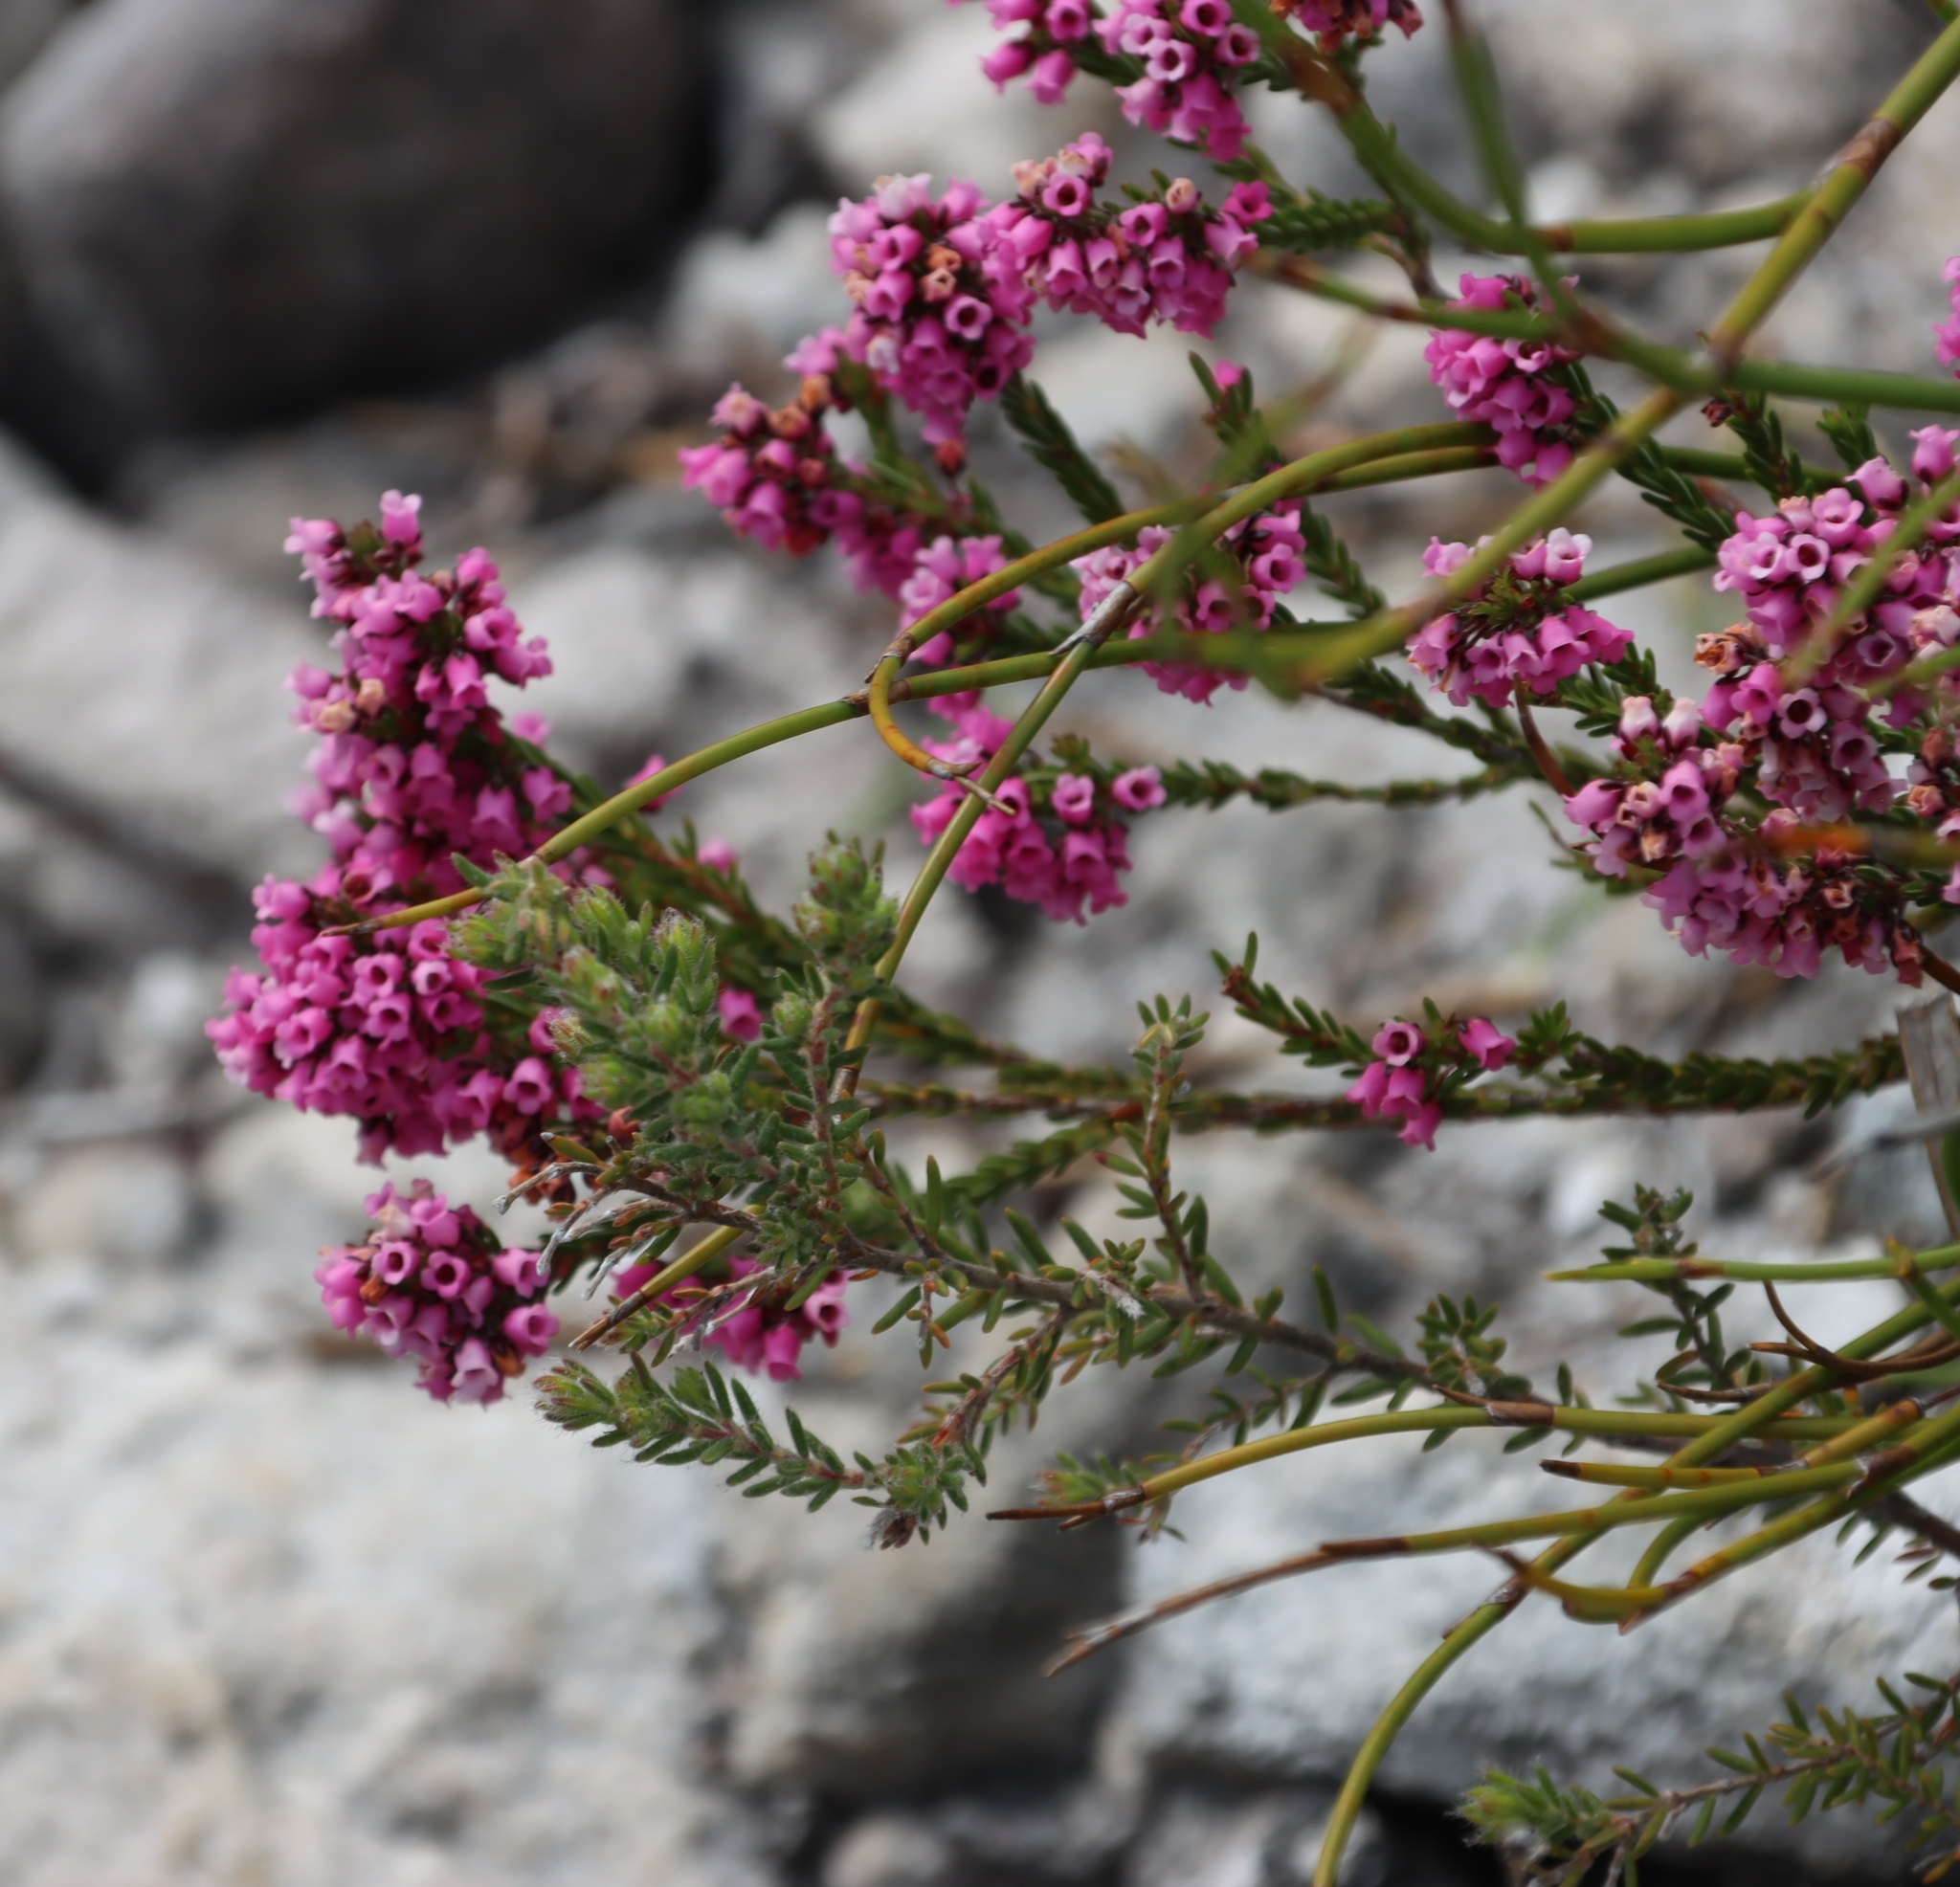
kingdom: Plantae
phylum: Tracheophyta
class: Magnoliopsida
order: Ericales
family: Ericaceae
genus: Erica
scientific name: Erica pulchella
